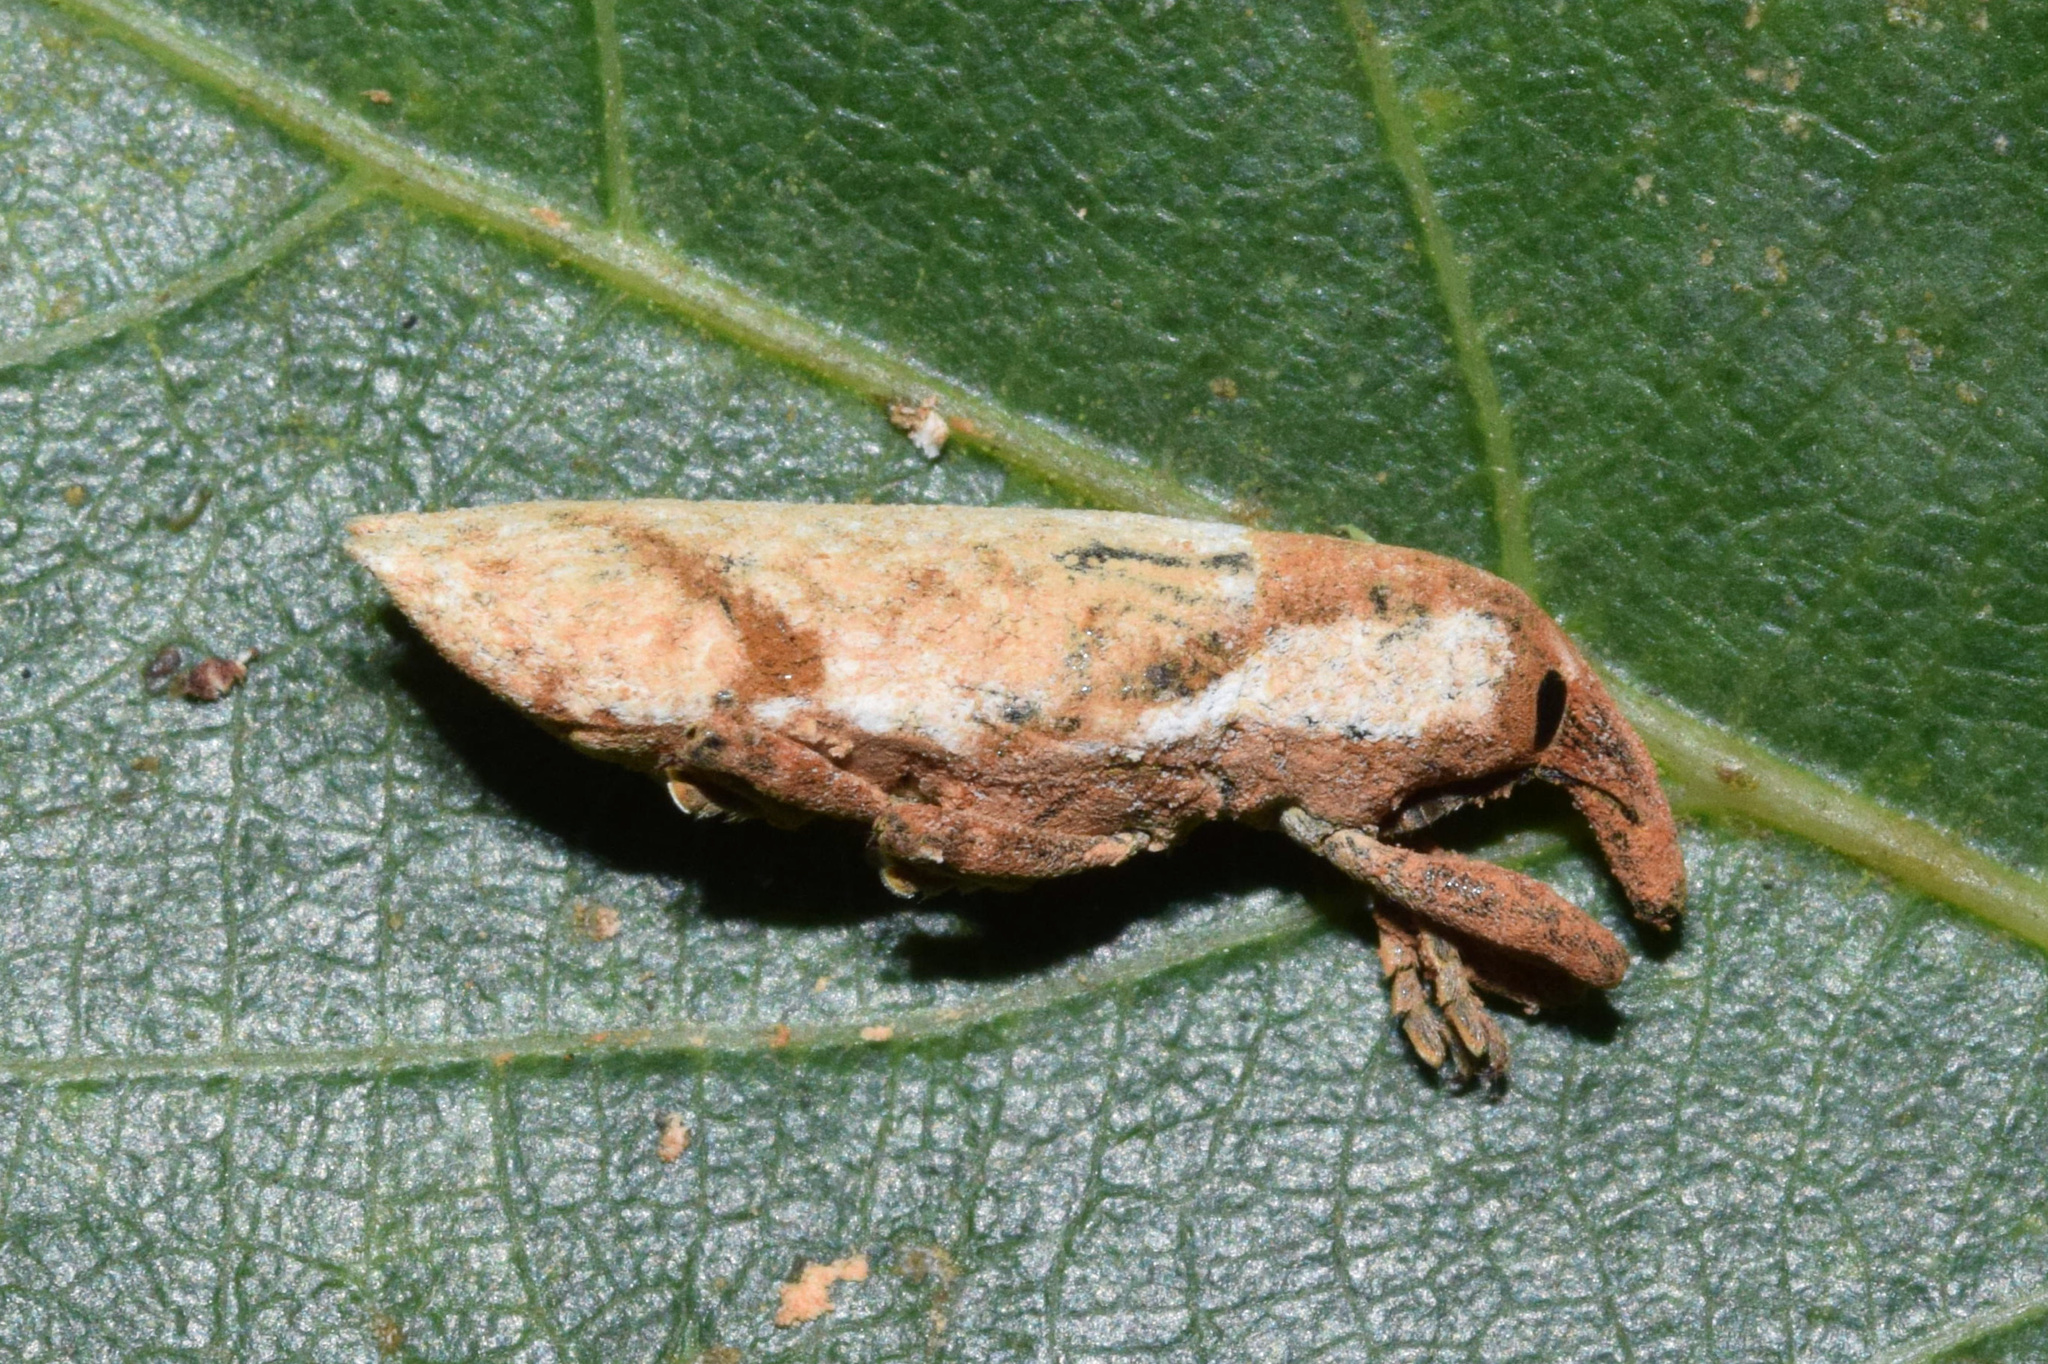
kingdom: Animalia
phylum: Arthropoda
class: Insecta
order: Coleoptera
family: Curculionidae
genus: Gasteroclisus
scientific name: Gasteroclisus
